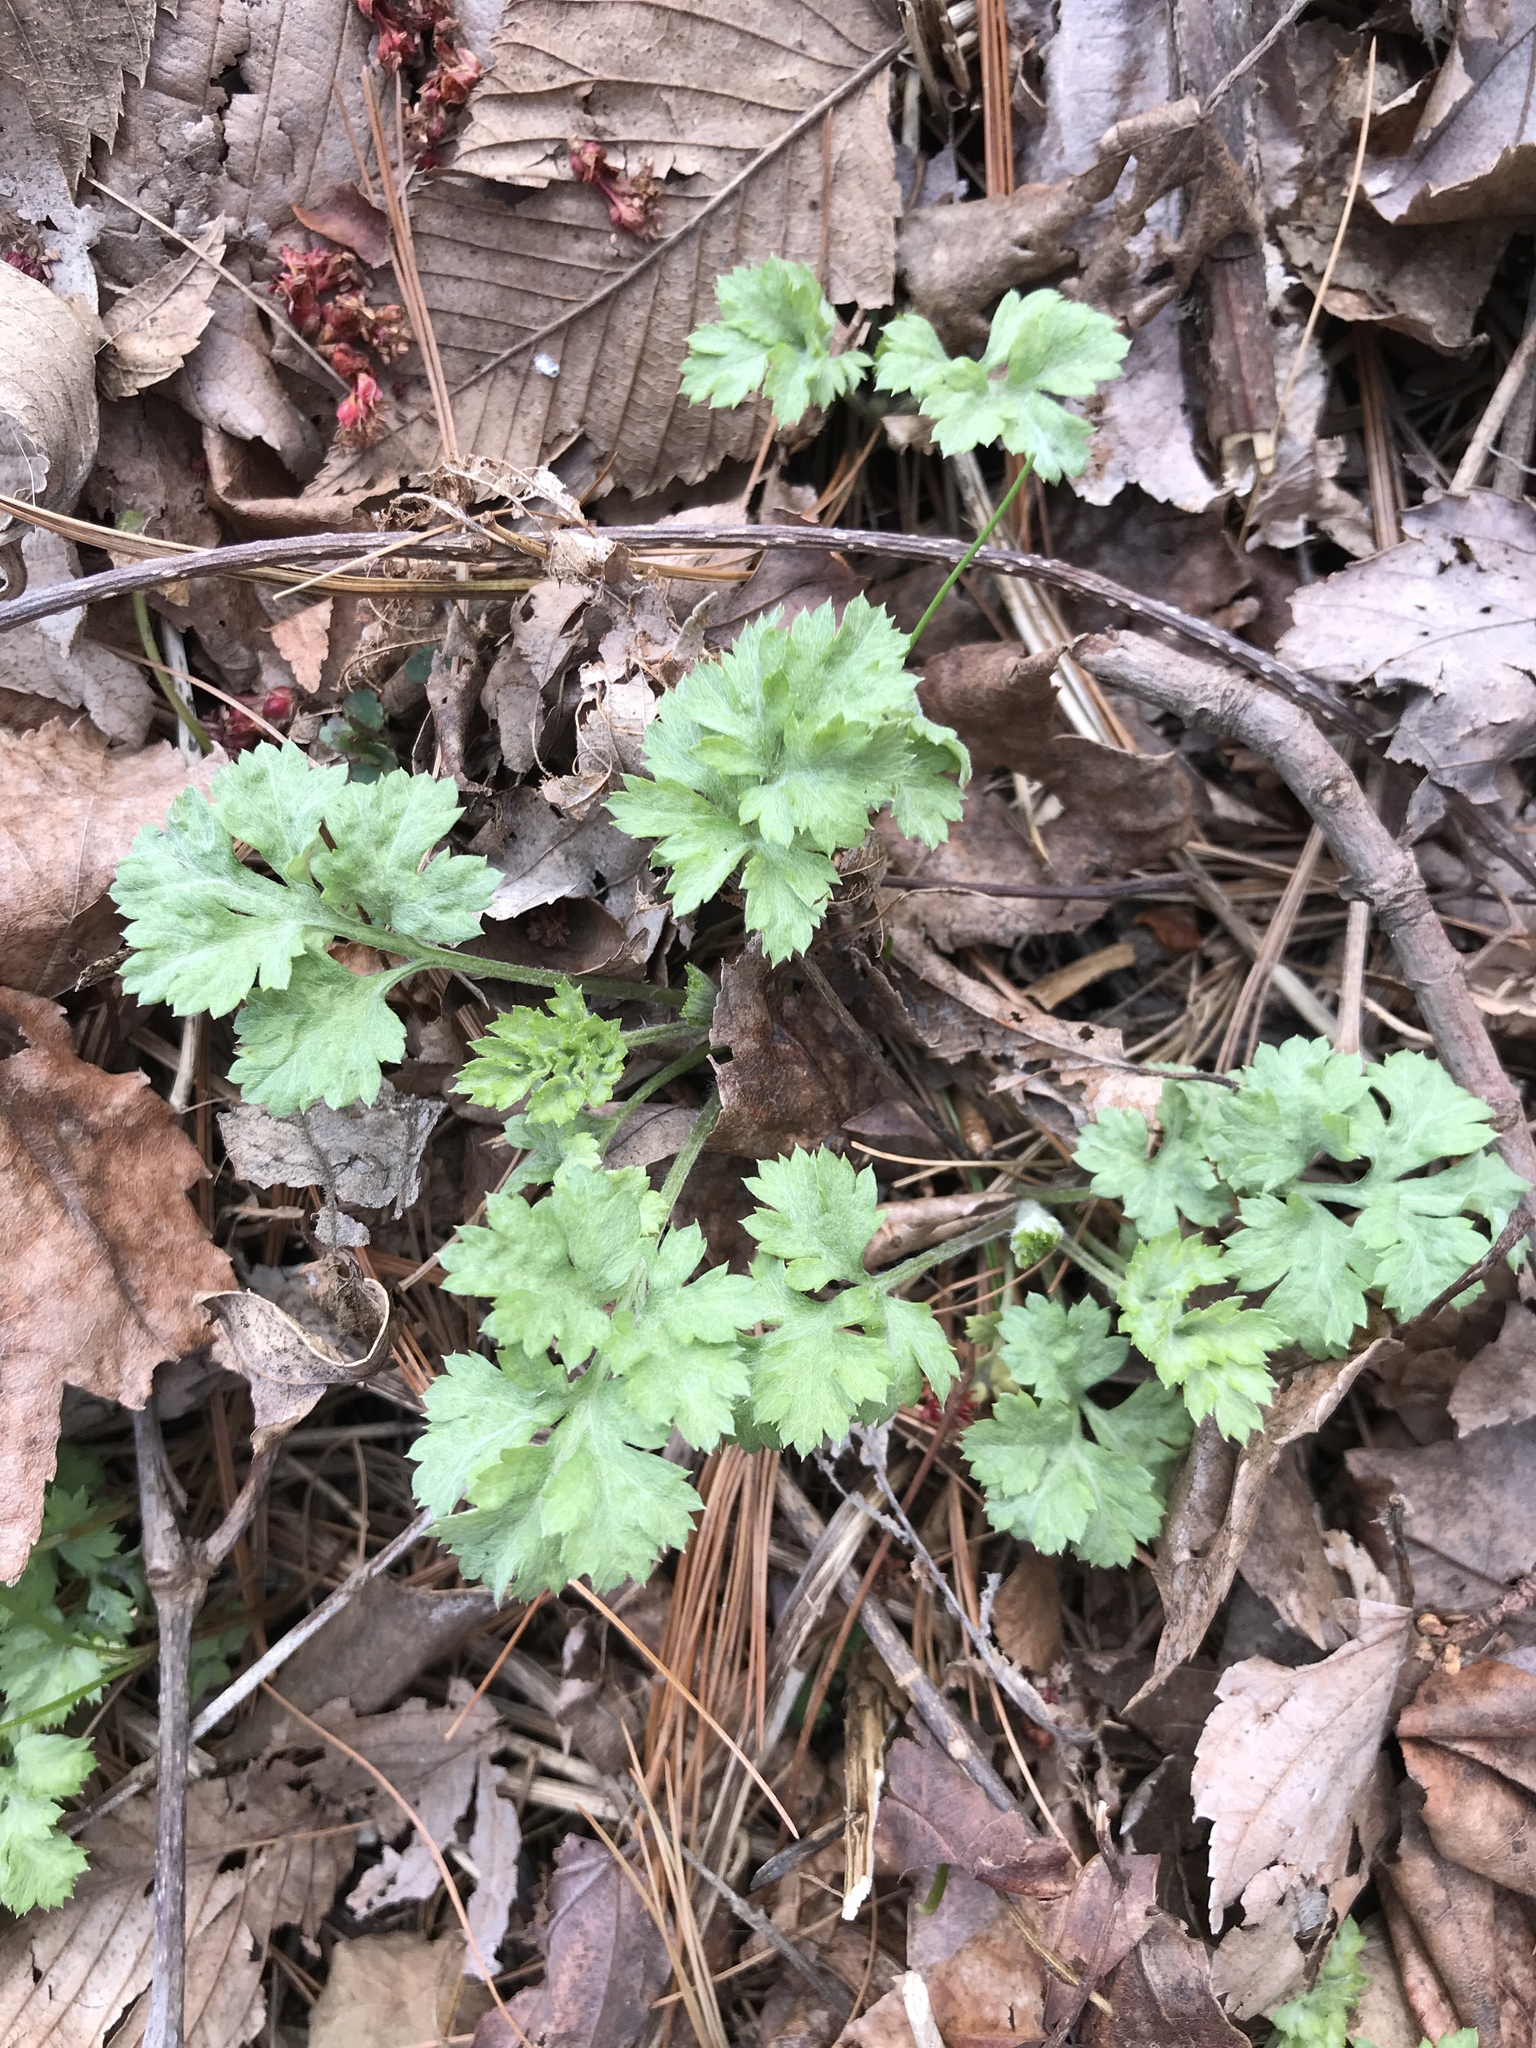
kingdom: Plantae
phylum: Tracheophyta
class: Magnoliopsida
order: Asterales
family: Asteraceae
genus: Artemisia
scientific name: Artemisia vulgaris
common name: Mugwort
